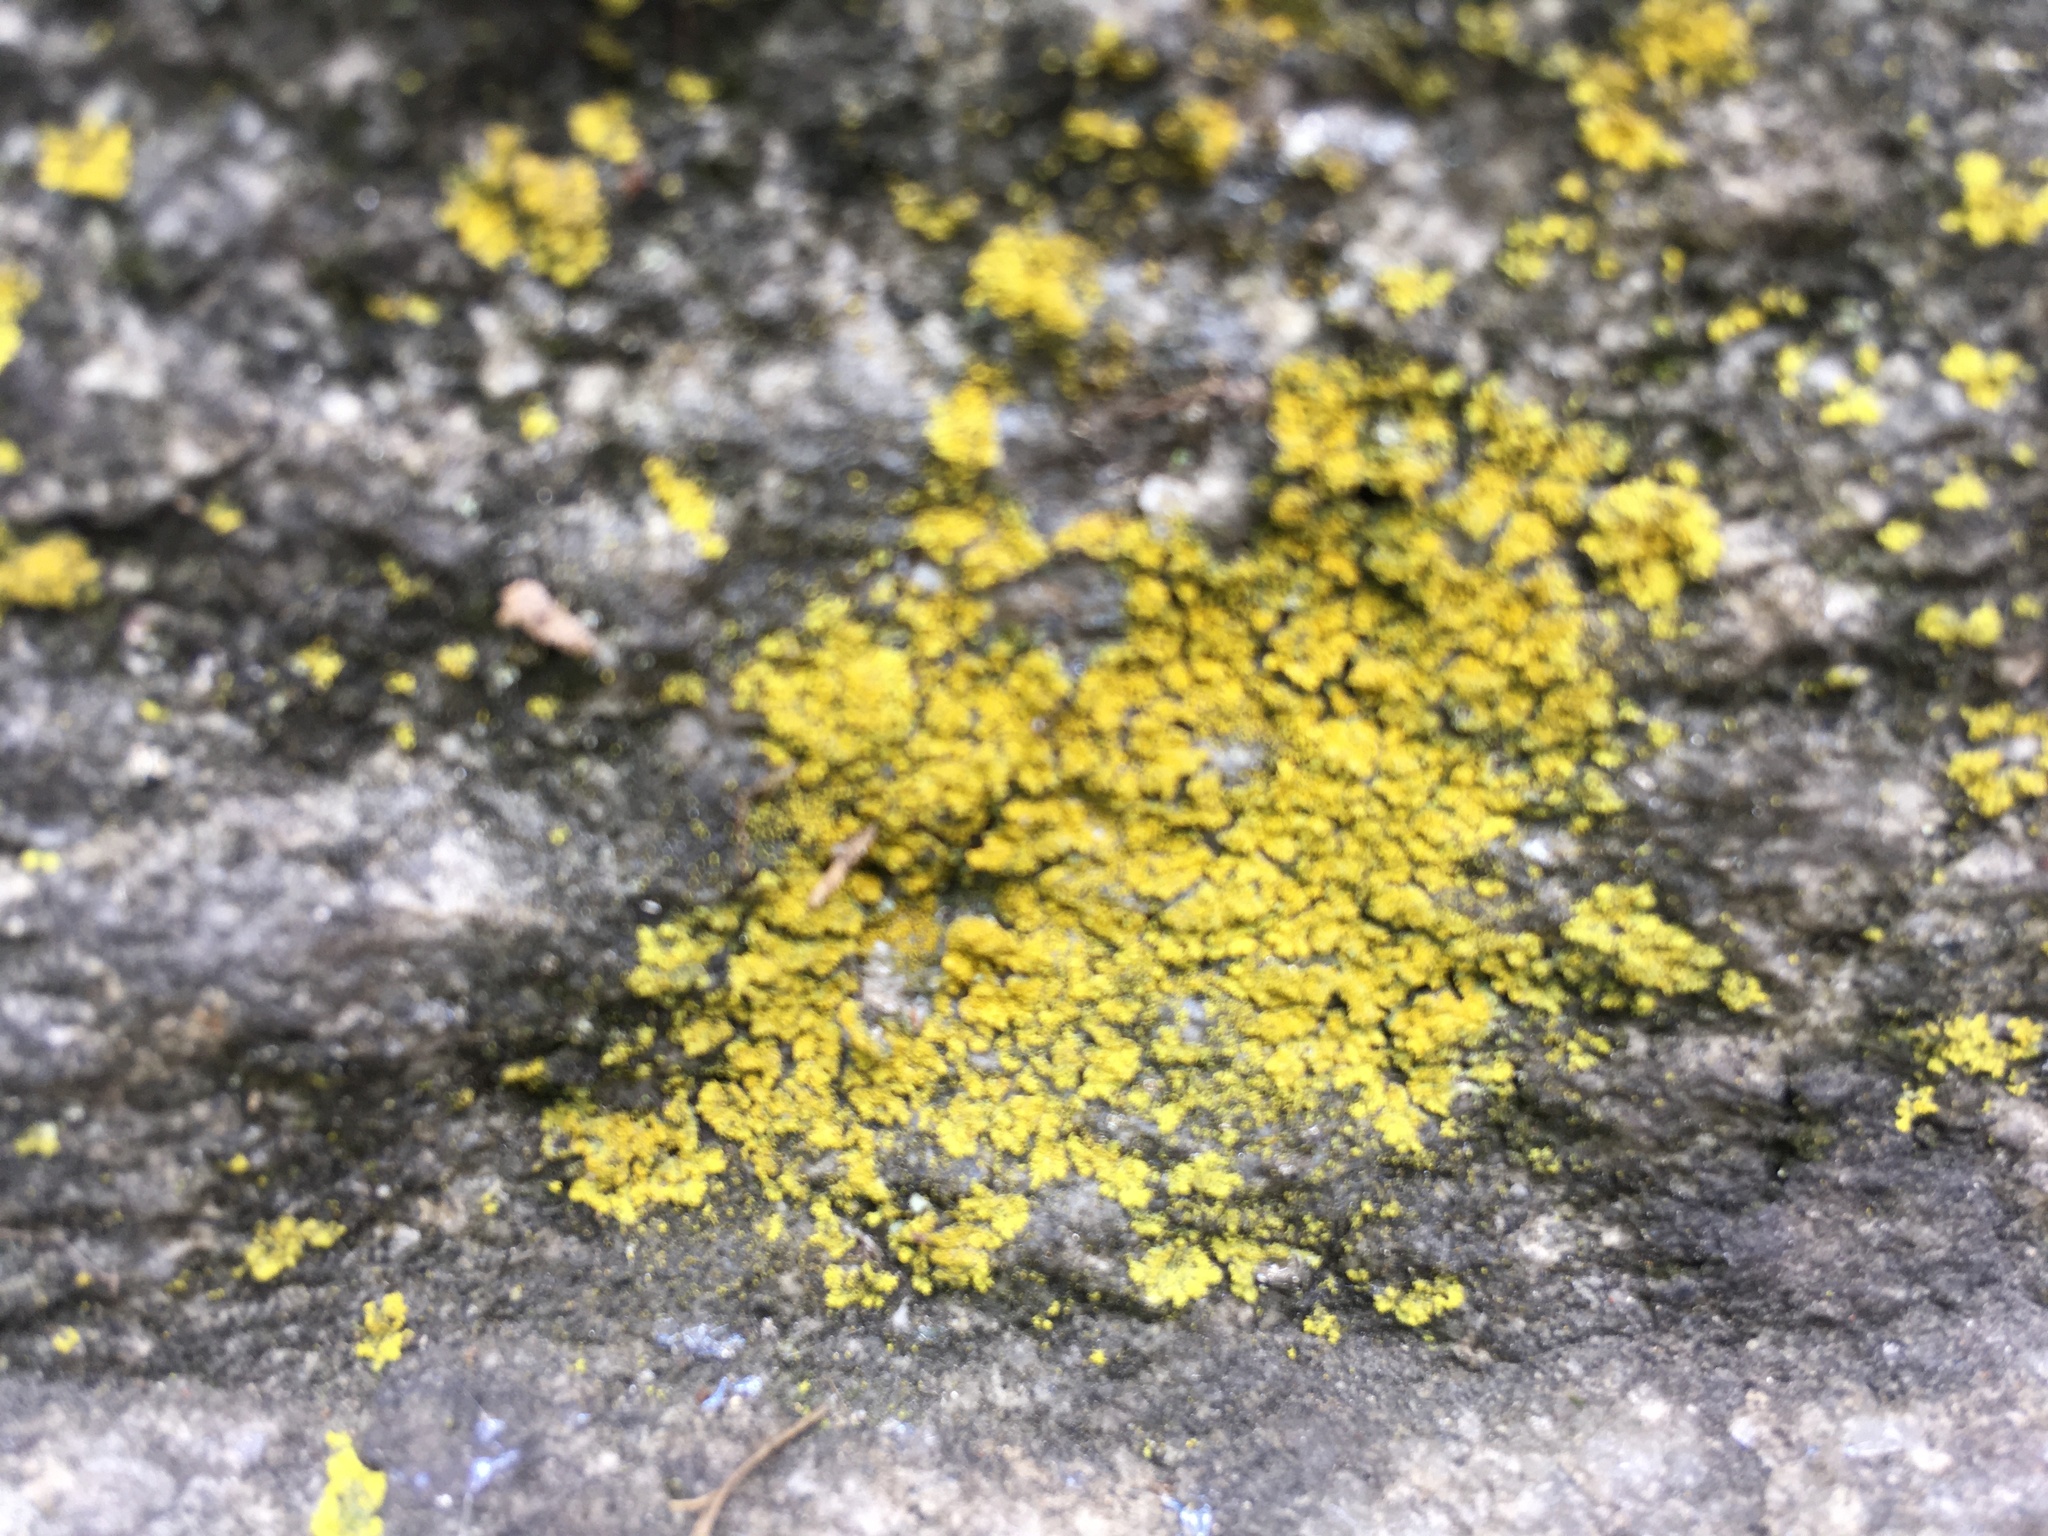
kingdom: Fungi
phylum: Ascomycota
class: Candelariomycetes
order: Candelariales
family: Candelariaceae
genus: Candelaria
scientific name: Candelaria concolor
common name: Candleflame lichen
